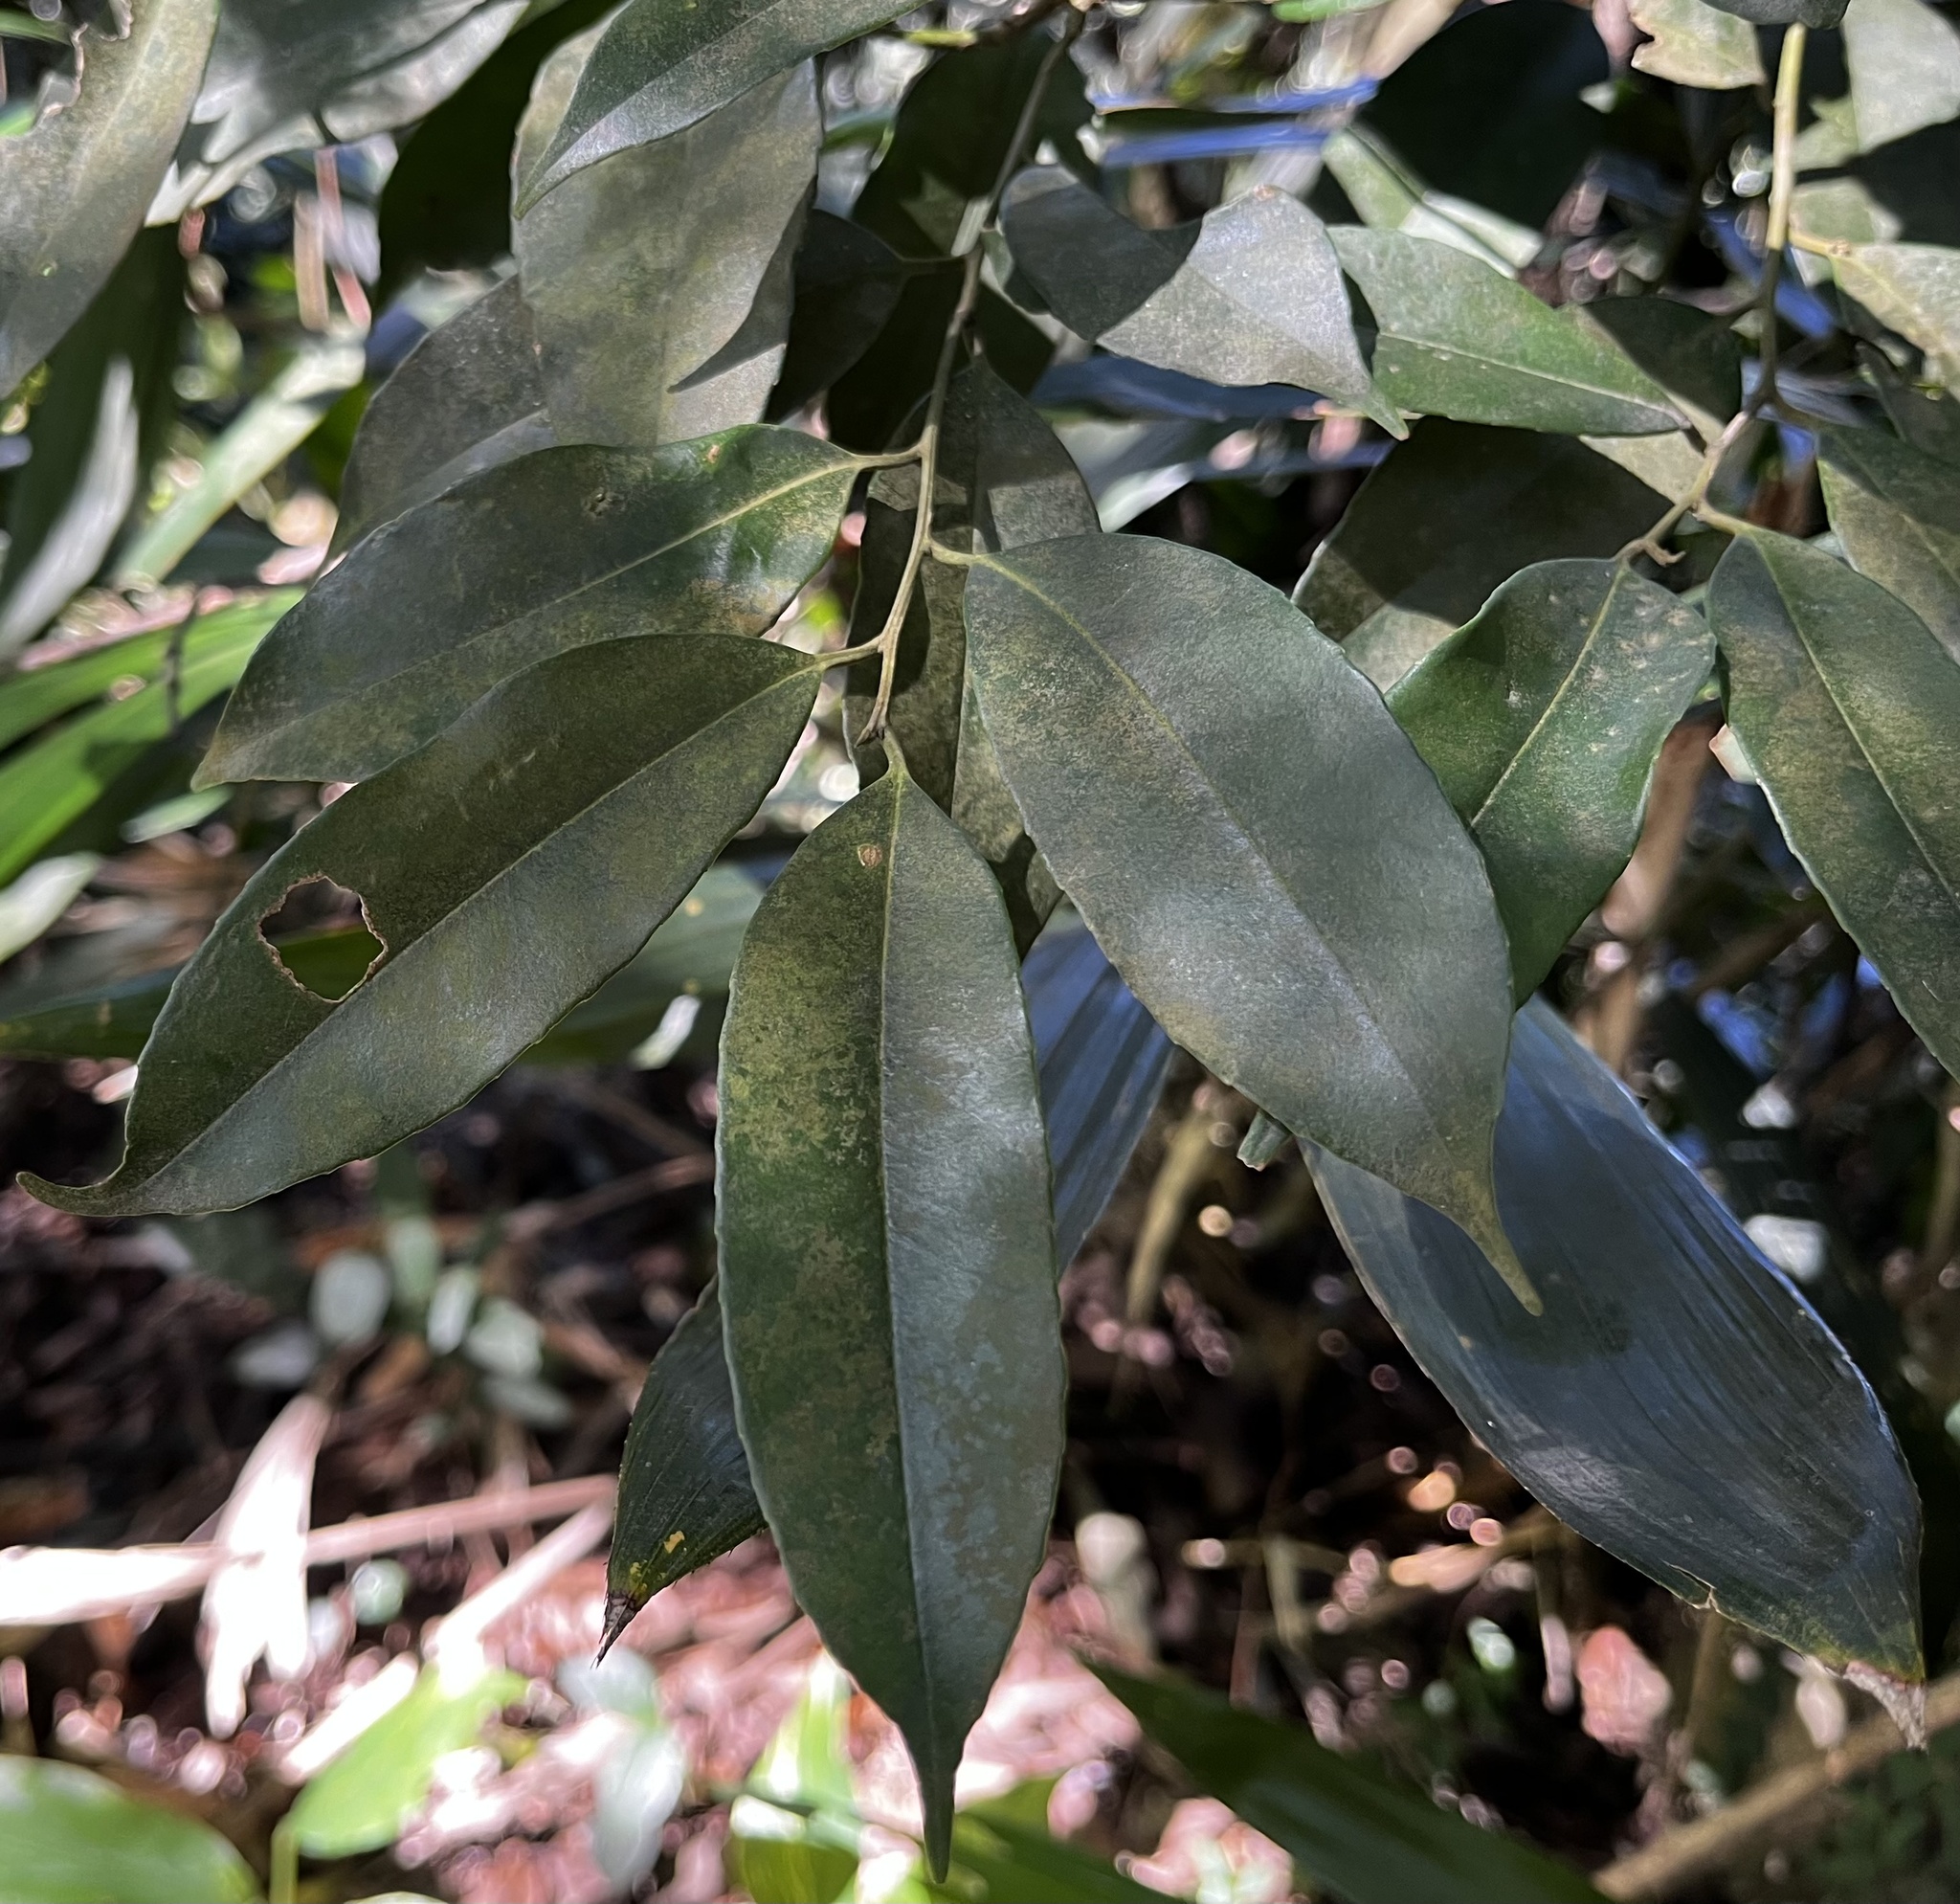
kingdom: Plantae
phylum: Tracheophyta
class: Magnoliopsida
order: Aquifoliales
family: Aquifoliaceae
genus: Ilex
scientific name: Ilex ficoidea
